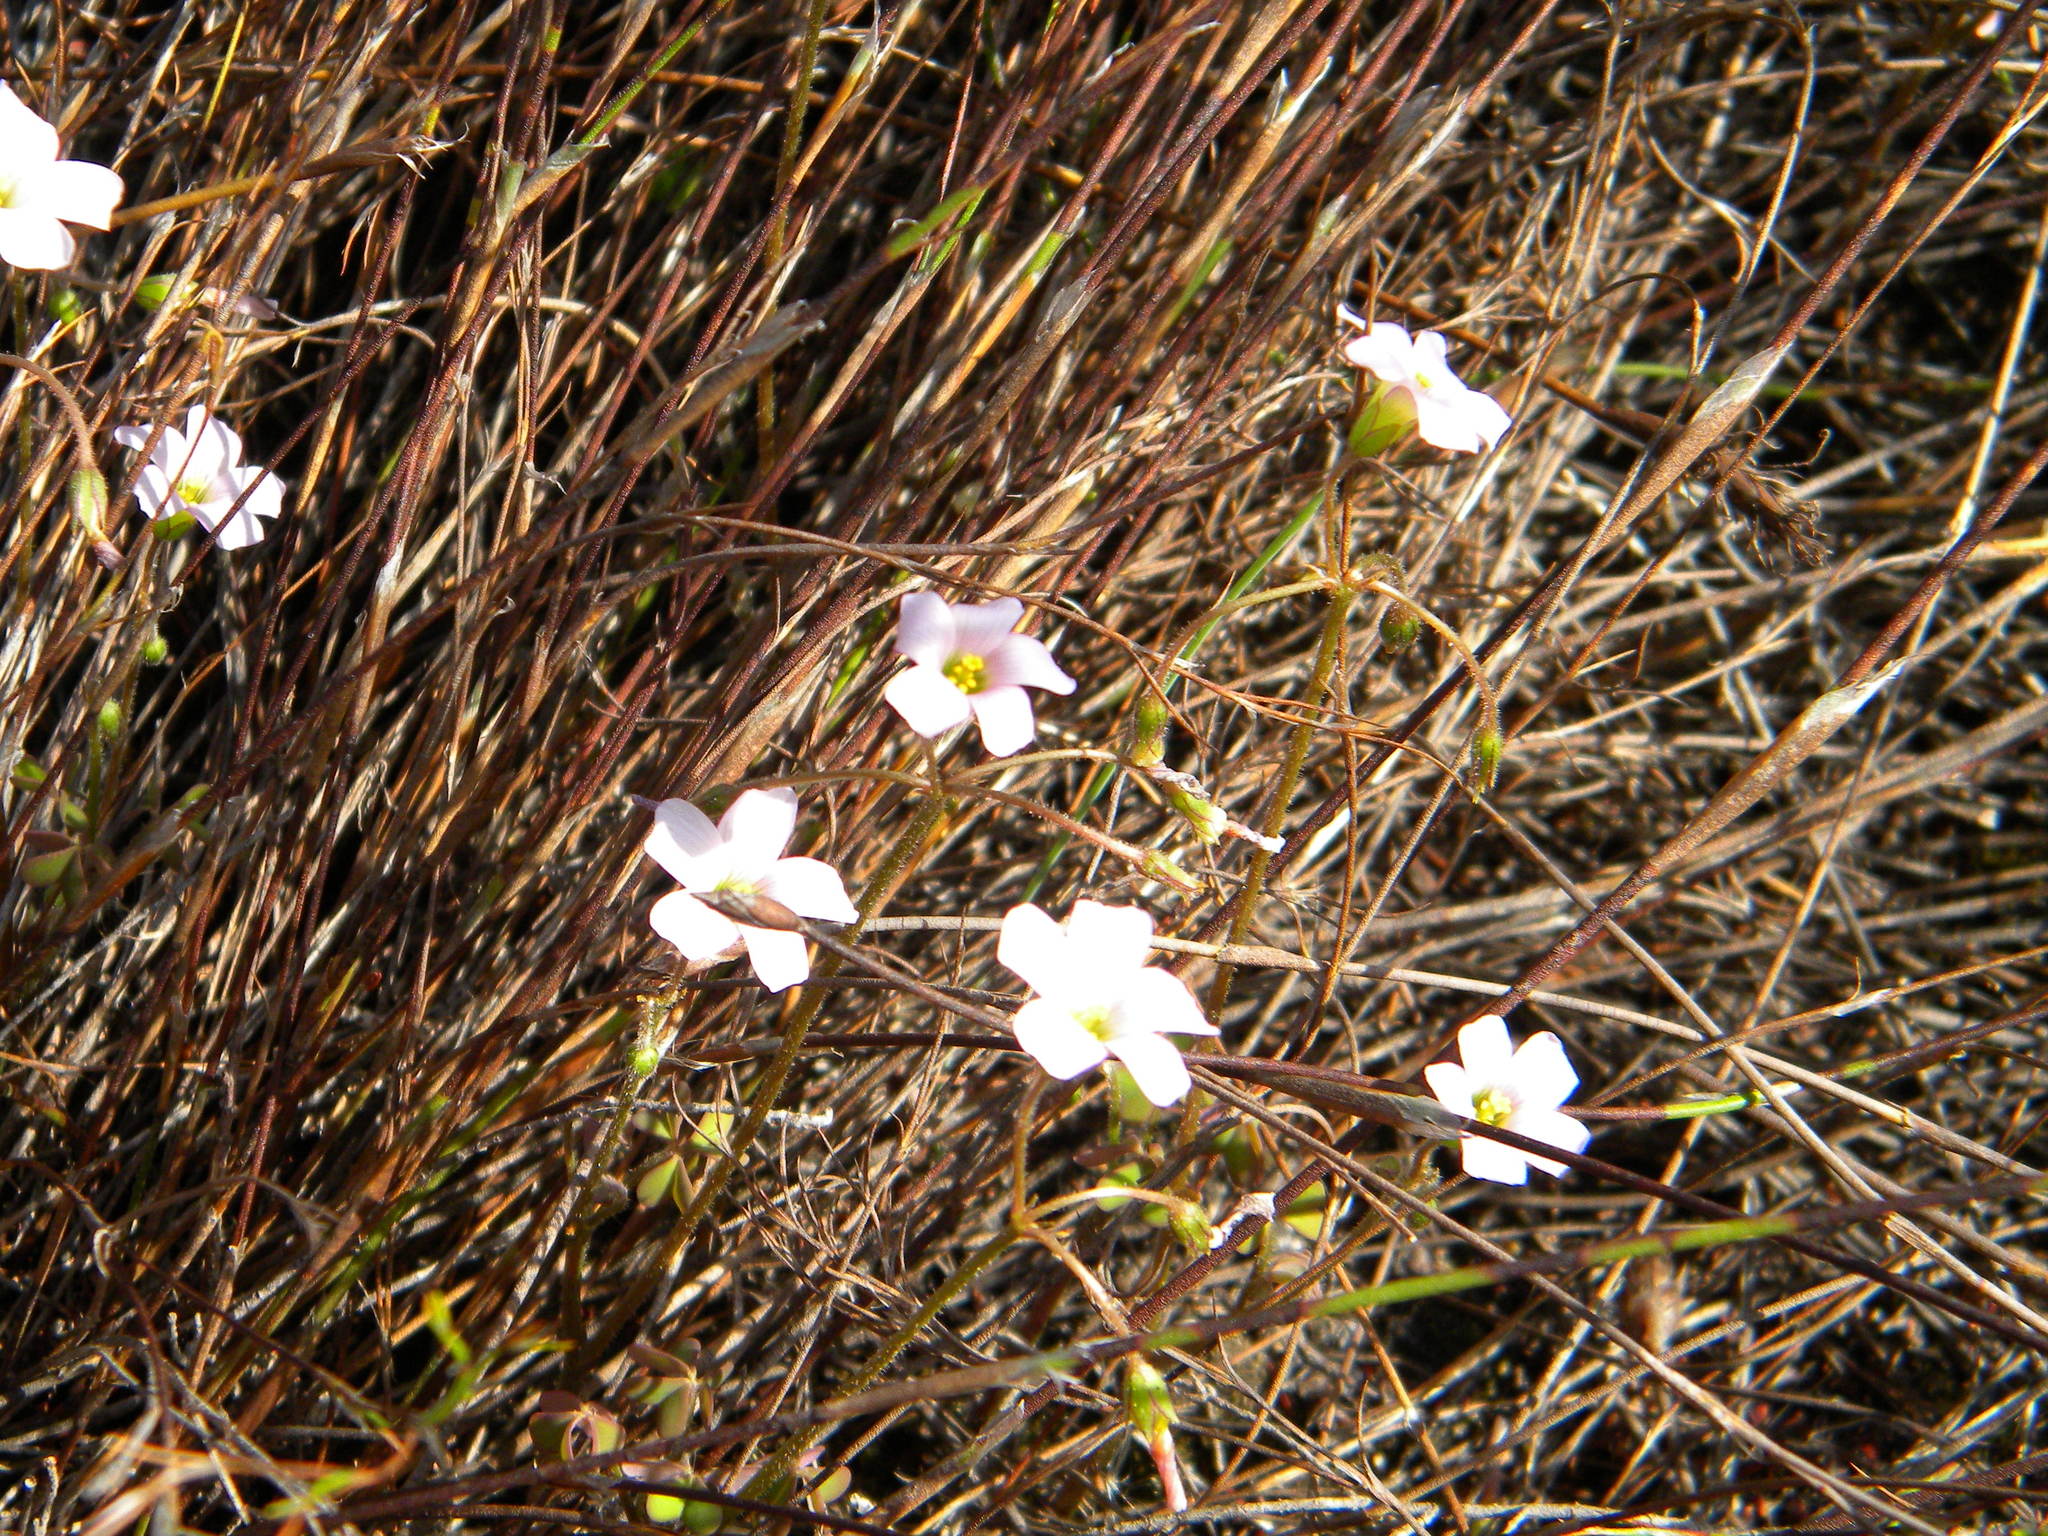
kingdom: Plantae
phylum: Tracheophyta
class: Magnoliopsida
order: Oxalidales
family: Oxalidaceae
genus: Oxalis
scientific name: Oxalis
